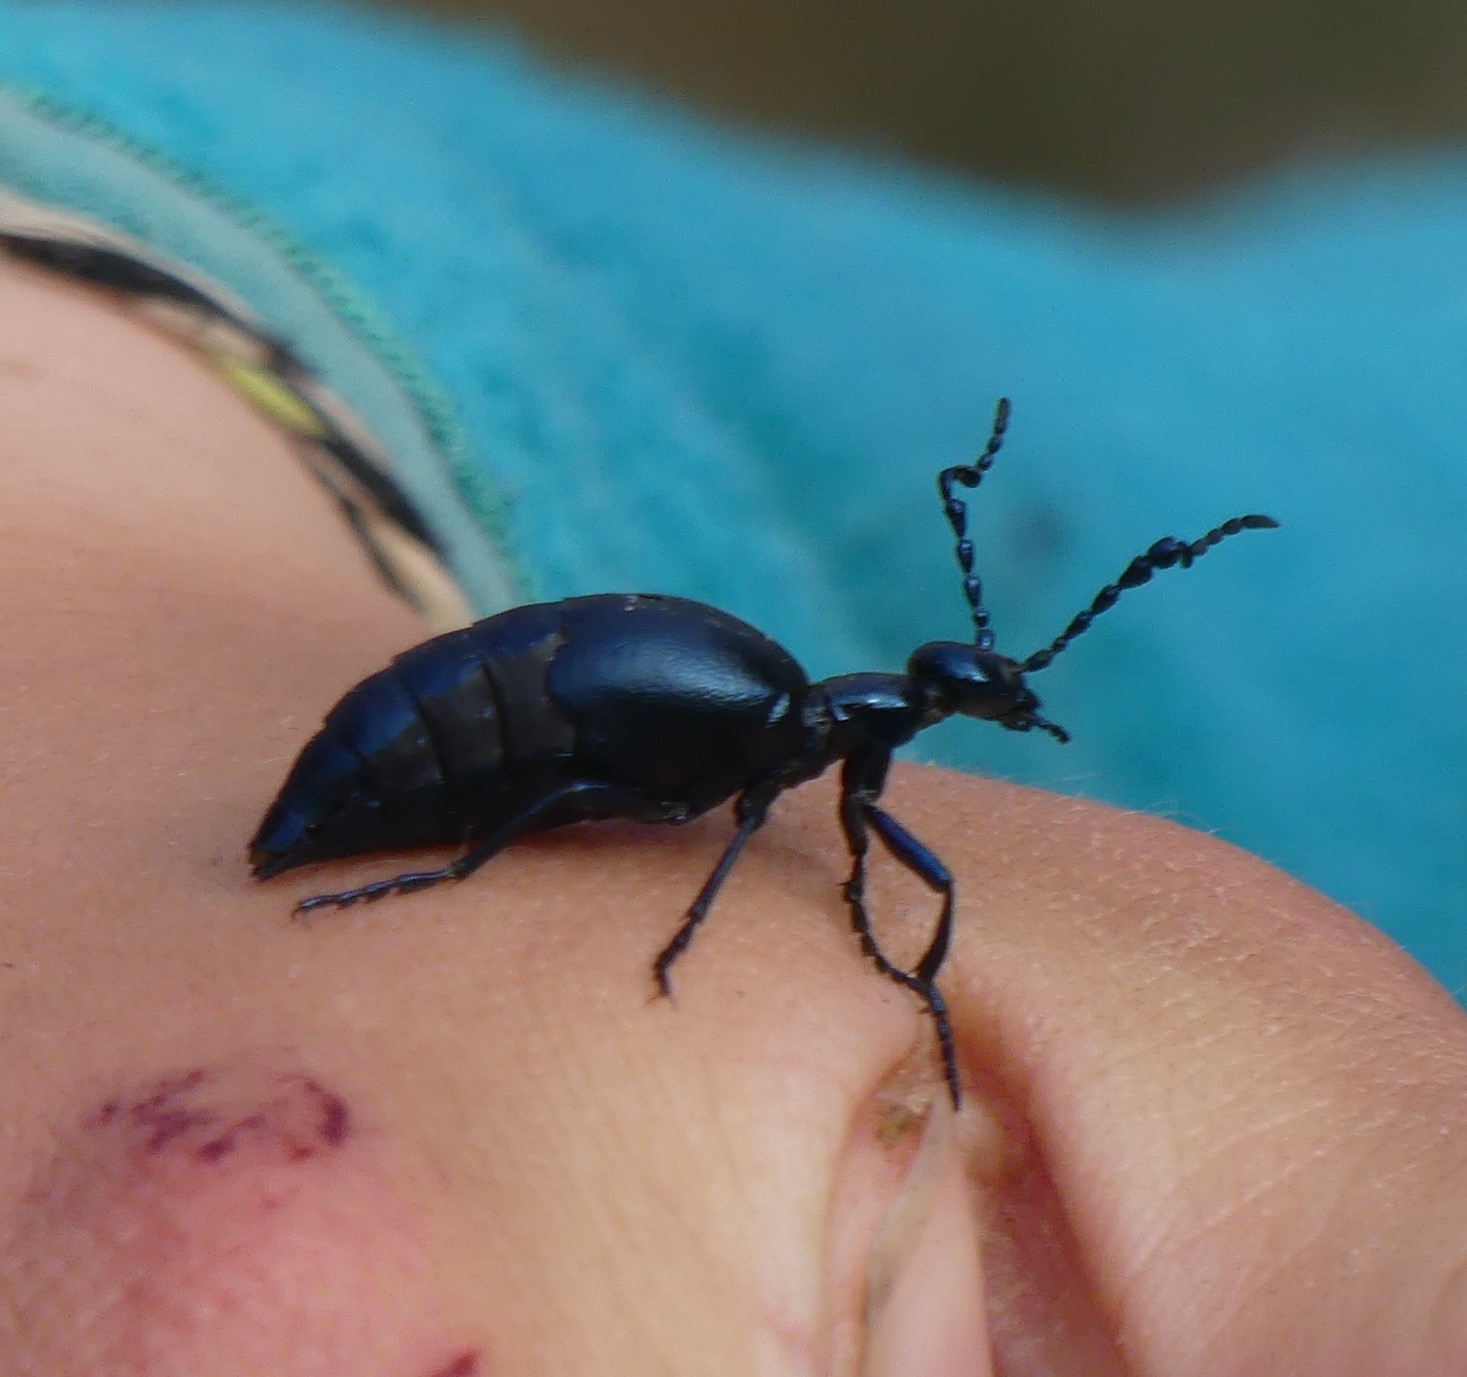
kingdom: Animalia
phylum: Arthropoda
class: Insecta
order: Coleoptera
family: Meloidae
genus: Meloe
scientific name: Meloe violaceus
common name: Violet oil-beetle
